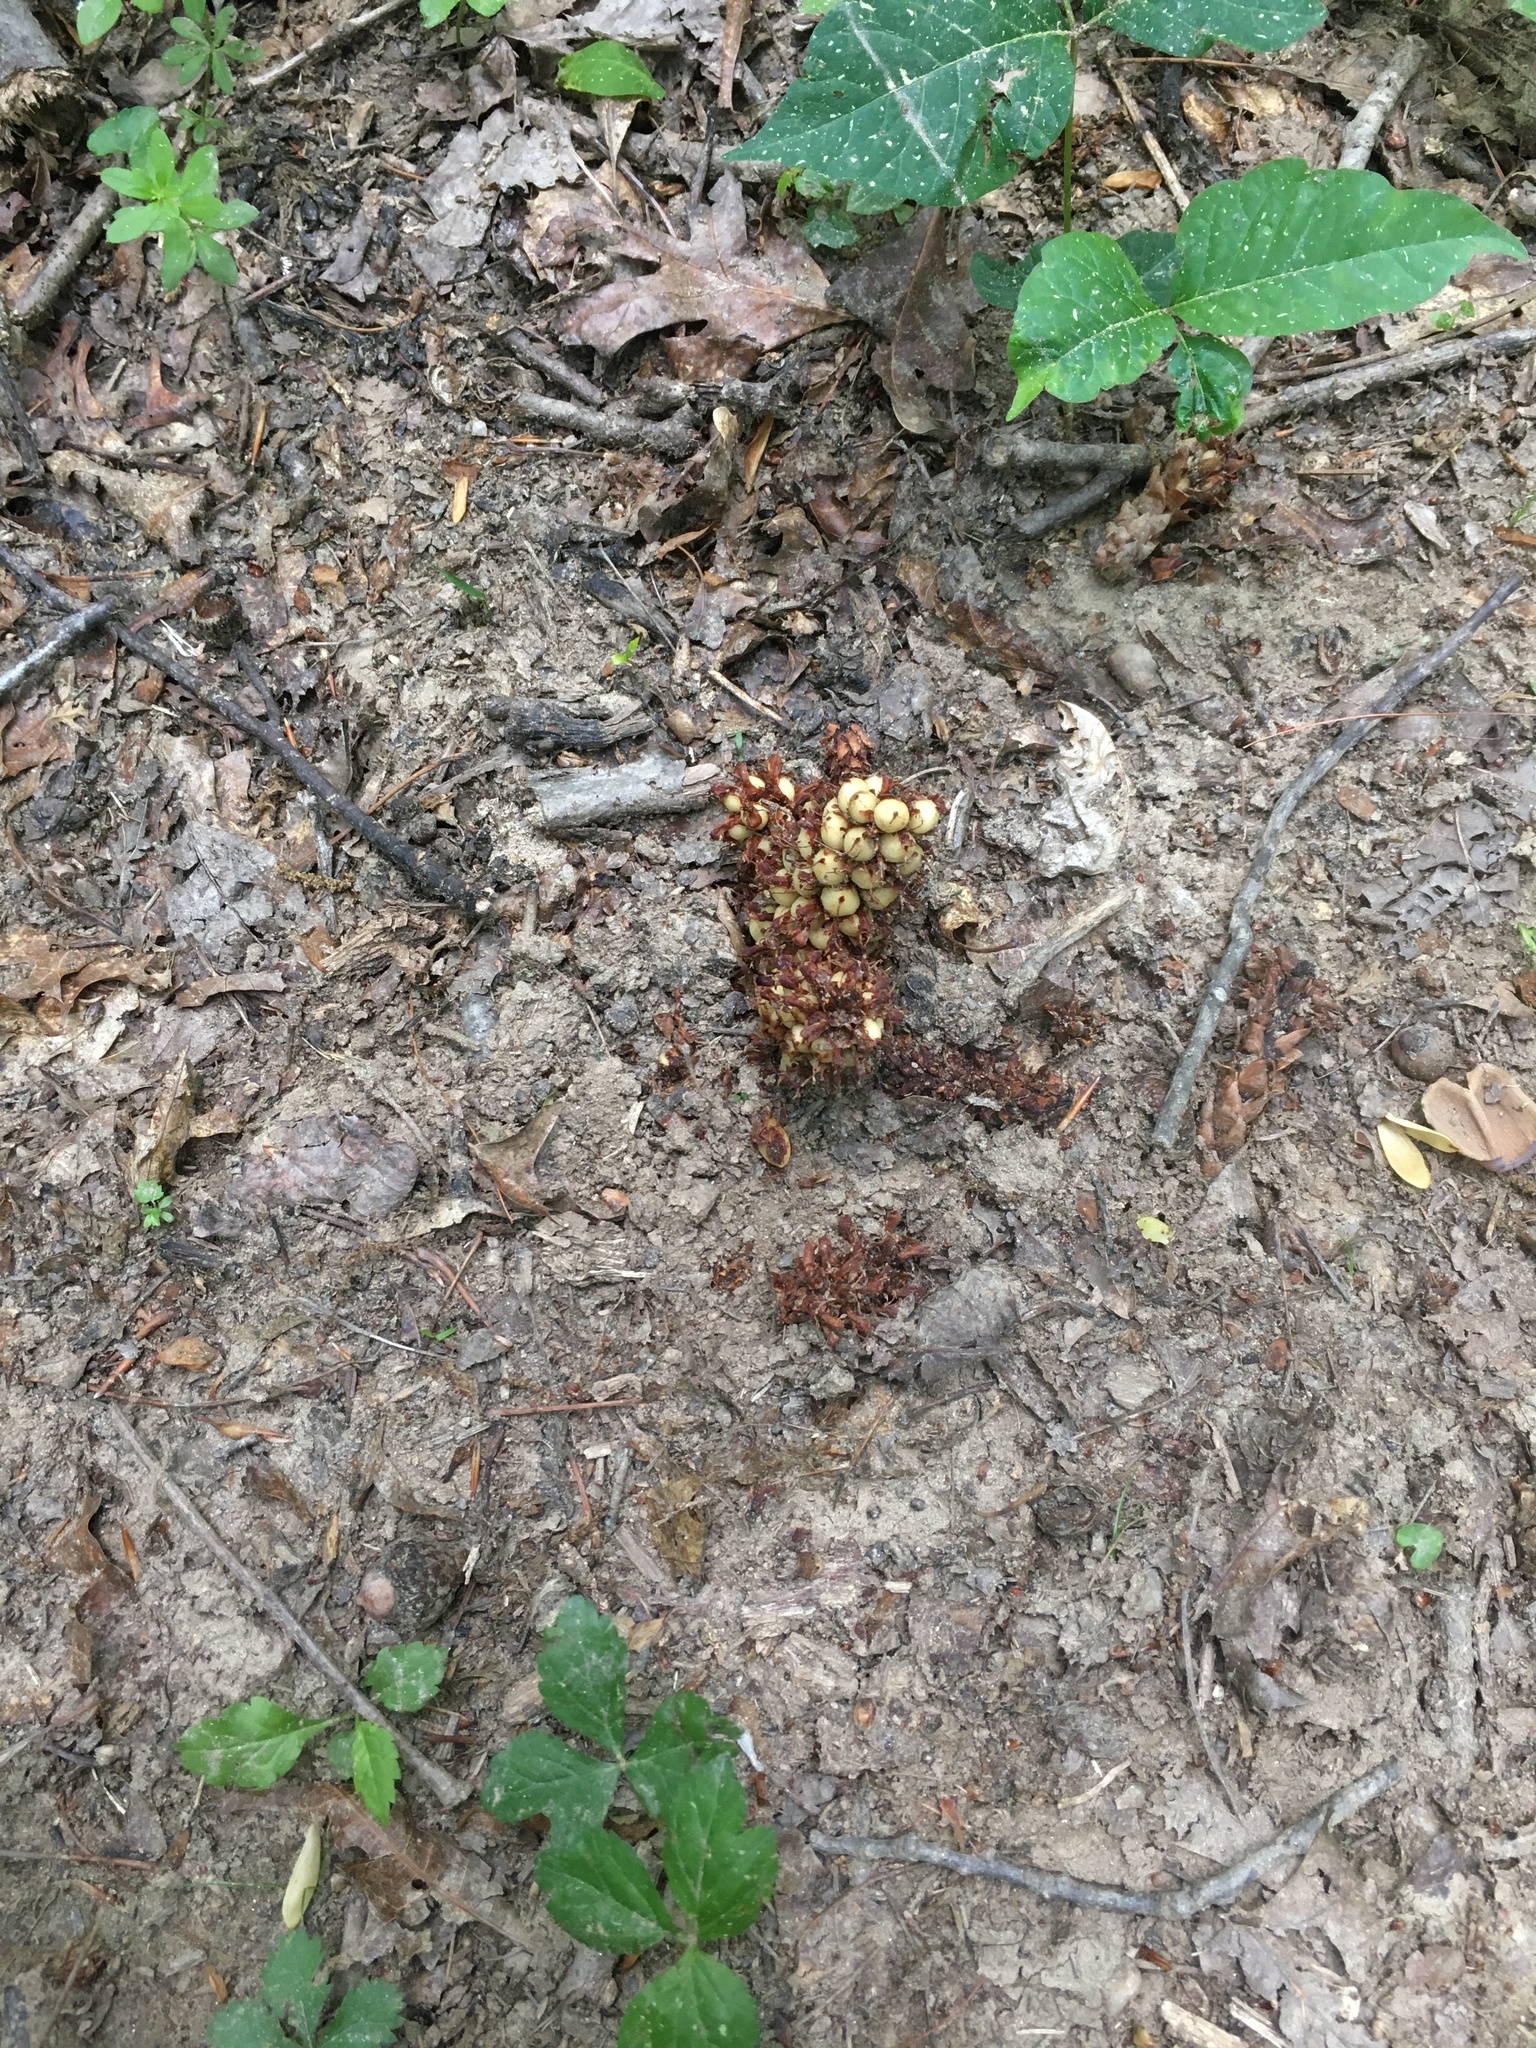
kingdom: Plantae
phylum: Tracheophyta
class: Magnoliopsida
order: Lamiales
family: Orobanchaceae
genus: Conopholis
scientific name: Conopholis americana
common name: American cancer-root
